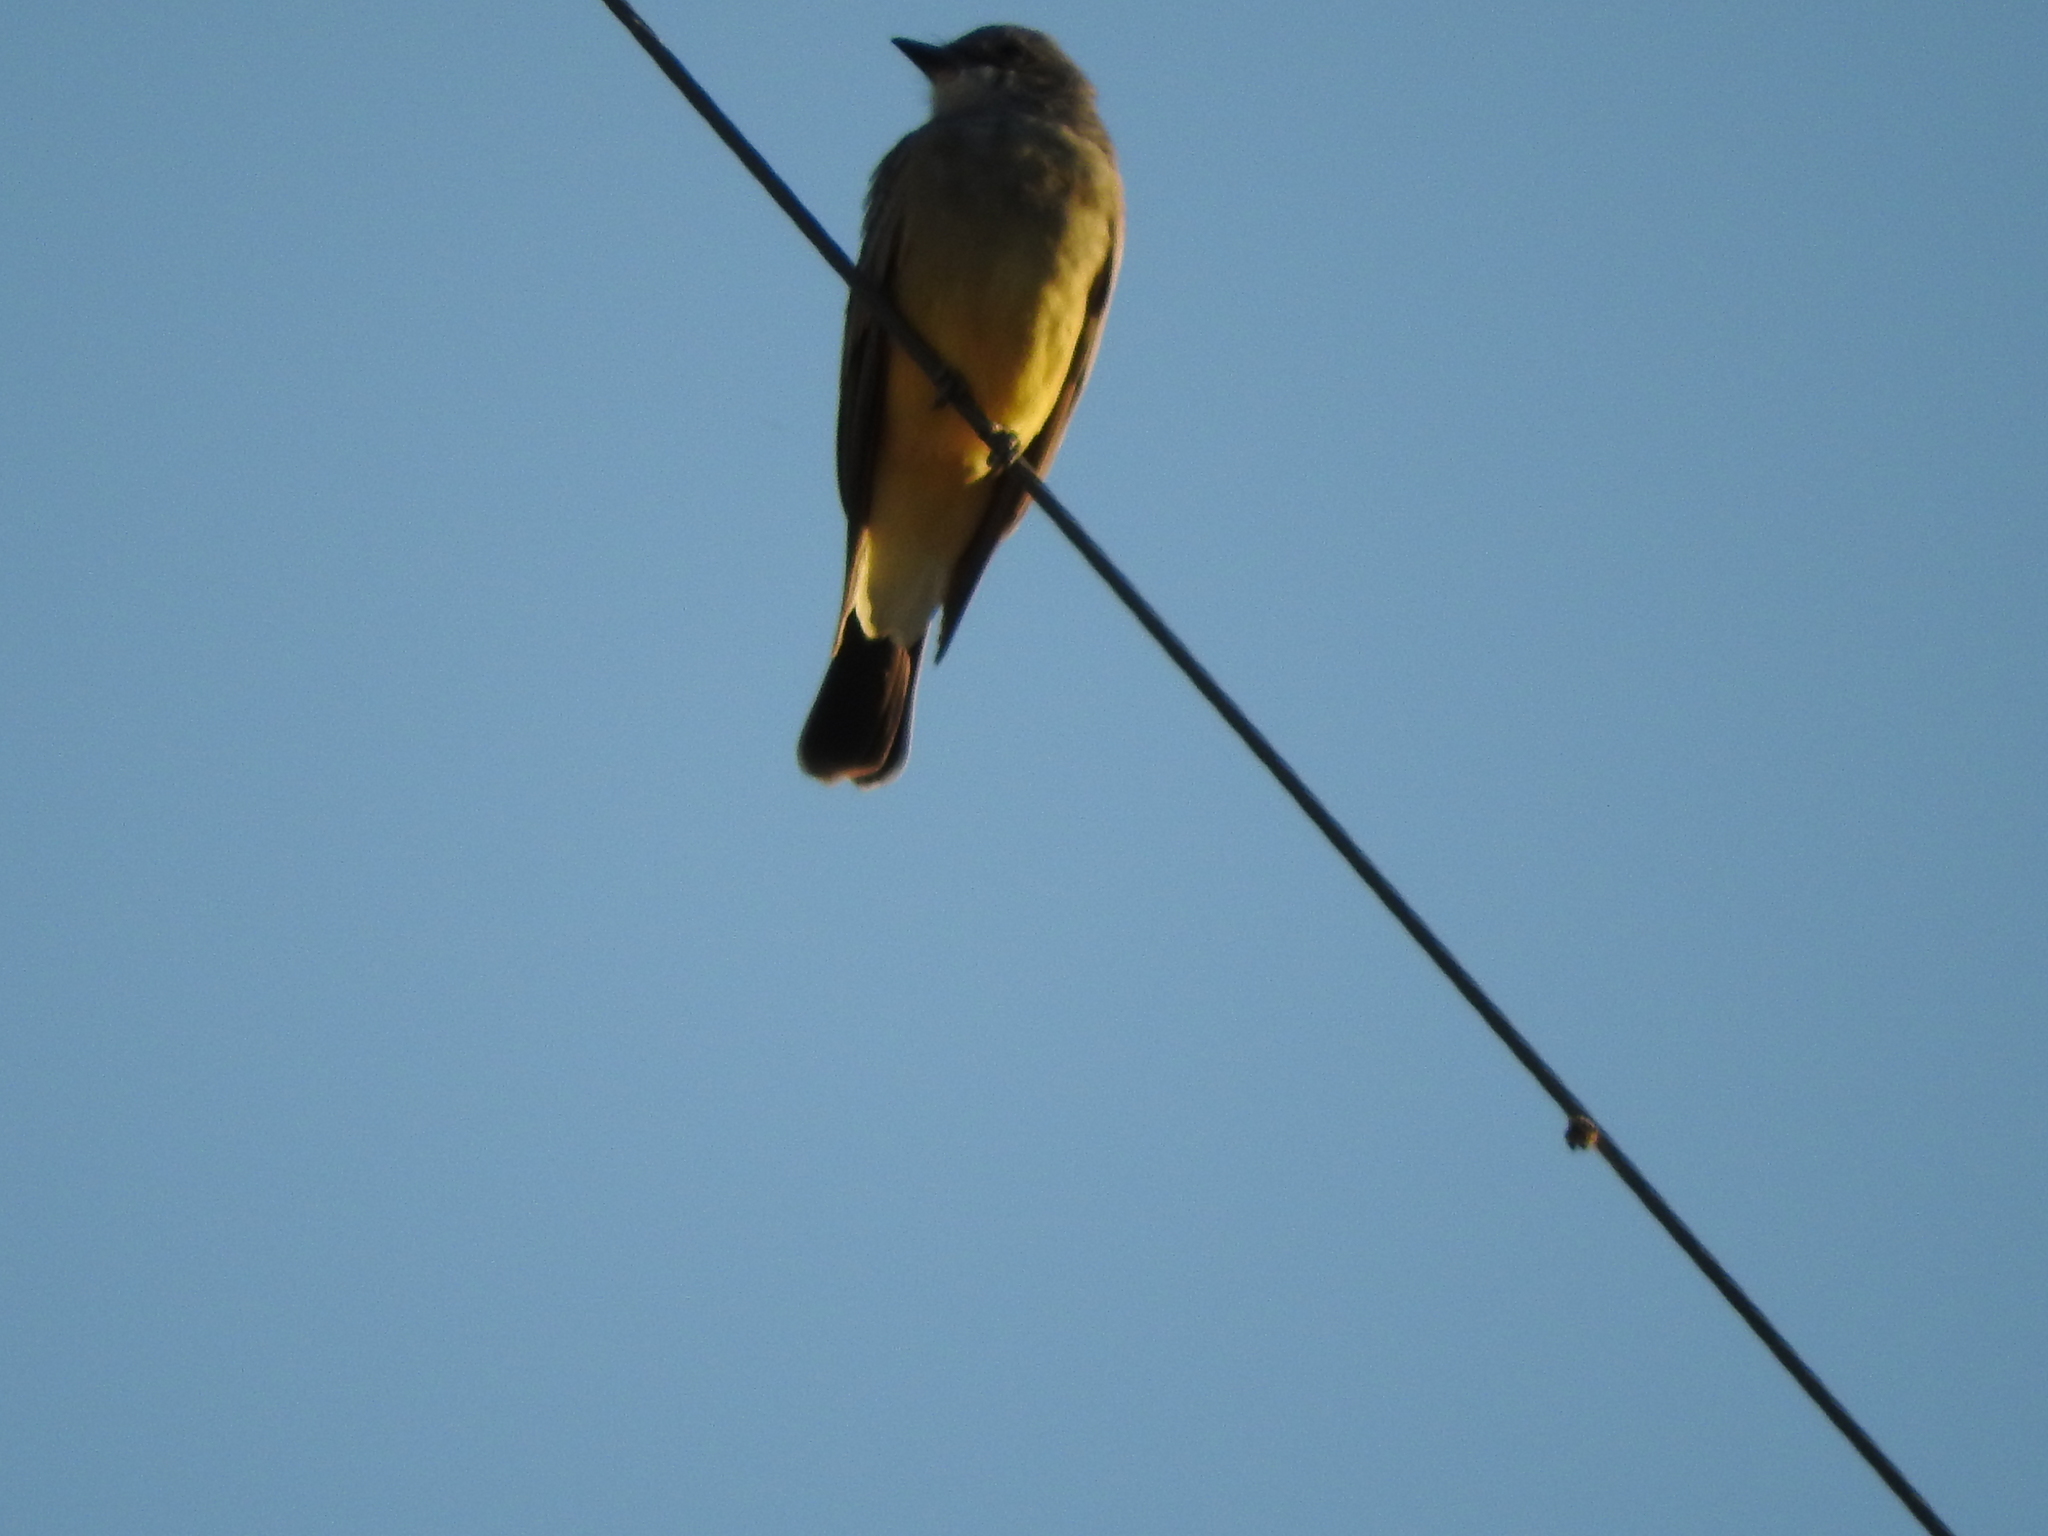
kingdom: Animalia
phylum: Chordata
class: Aves
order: Passeriformes
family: Tyrannidae
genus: Tyrannus
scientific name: Tyrannus vociferans
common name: Cassin's kingbird
